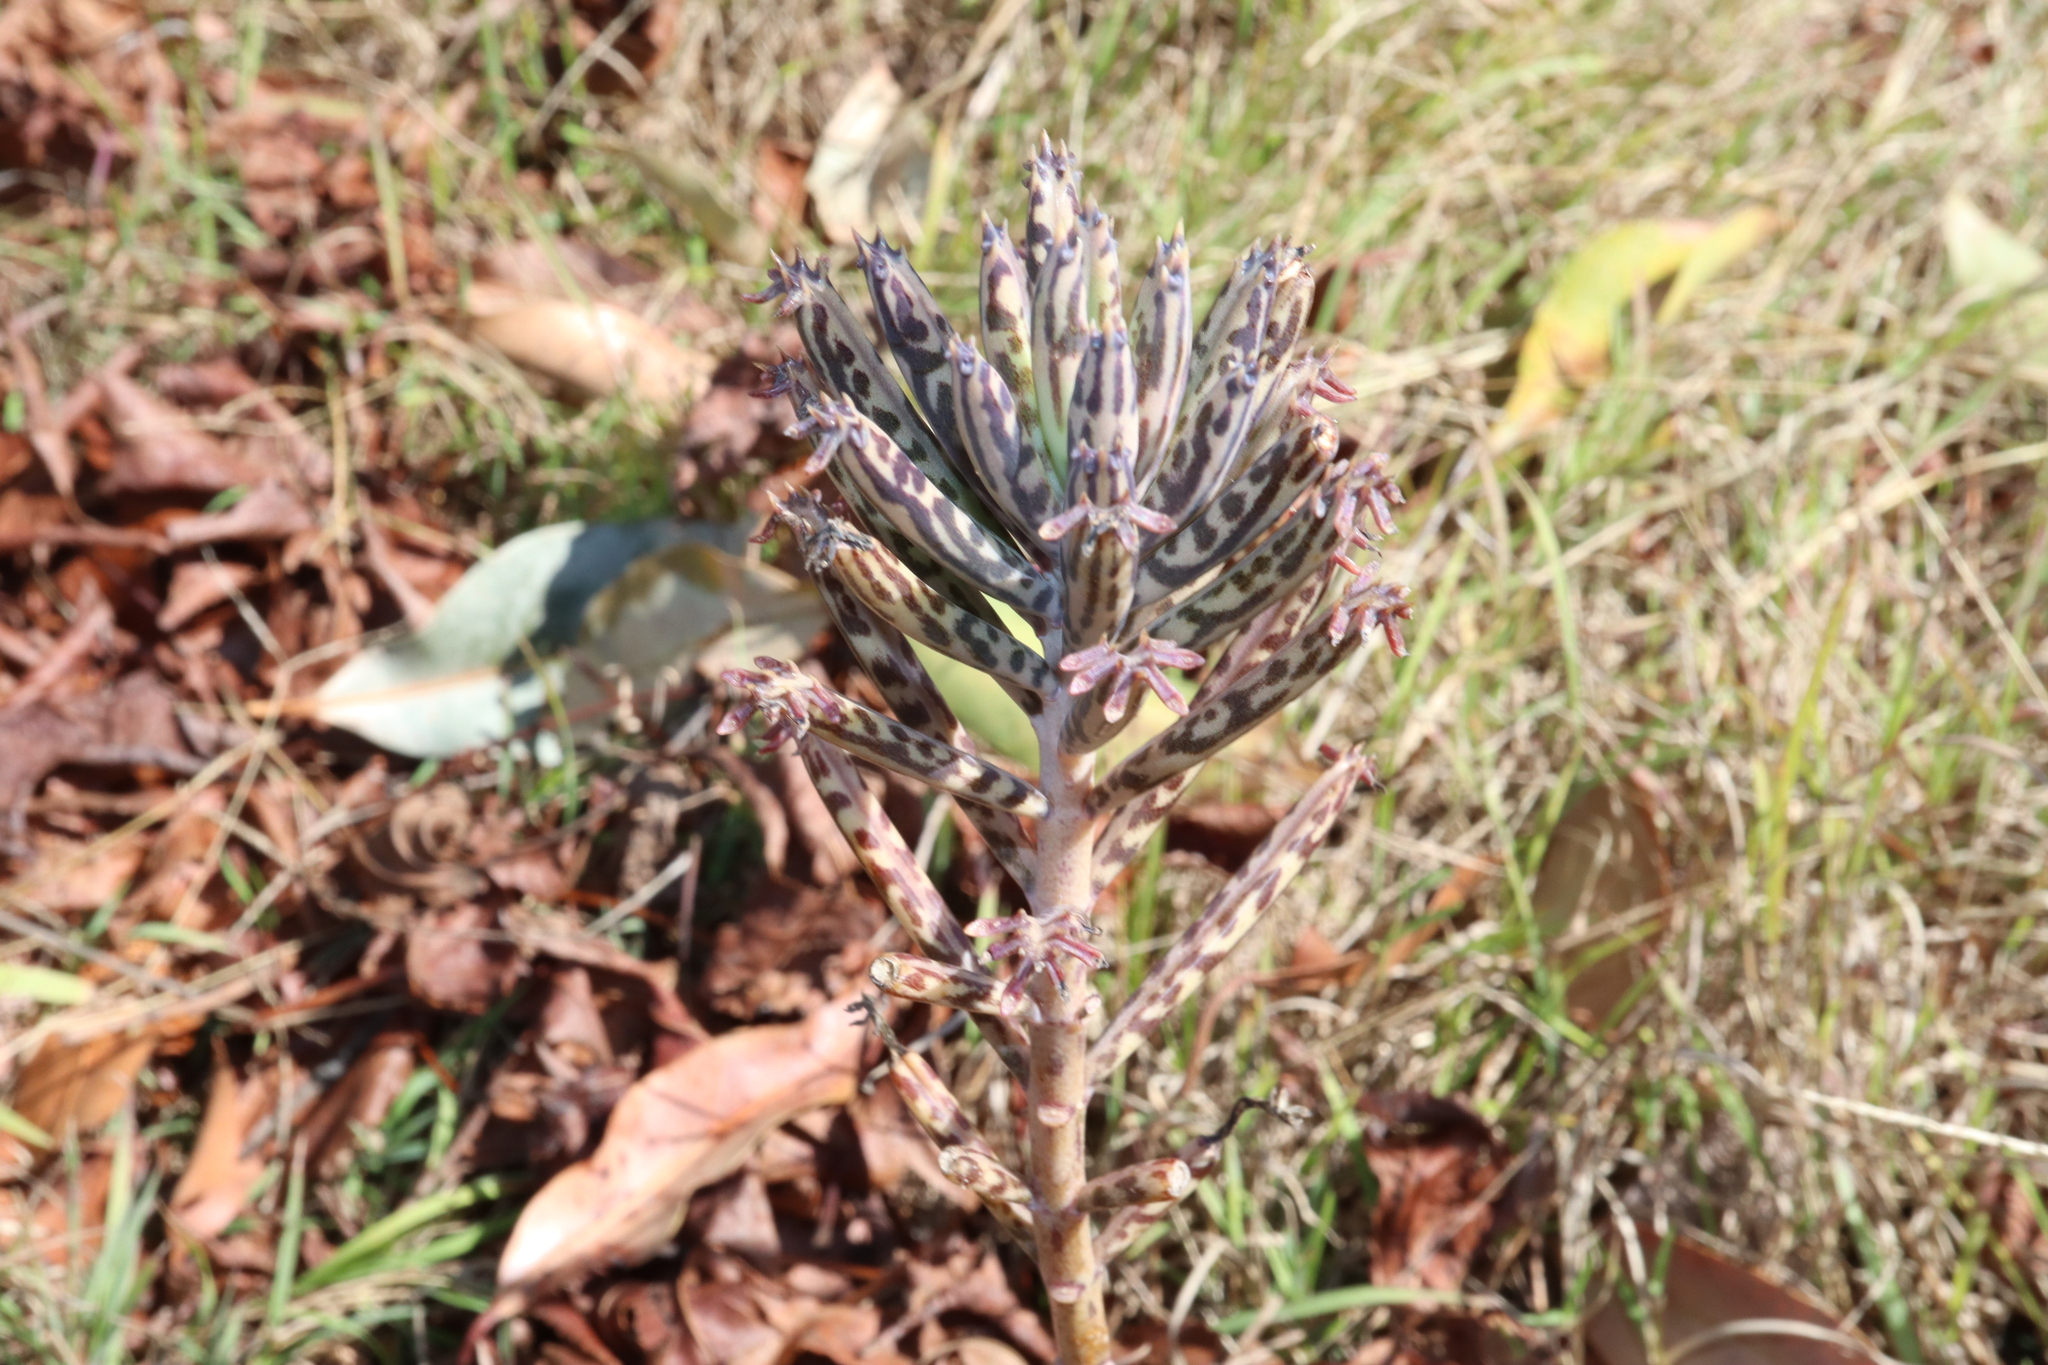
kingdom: Plantae
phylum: Tracheophyta
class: Magnoliopsida
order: Saxifragales
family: Crassulaceae
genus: Kalanchoe
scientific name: Kalanchoe delagoensis
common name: Chandelier plant
